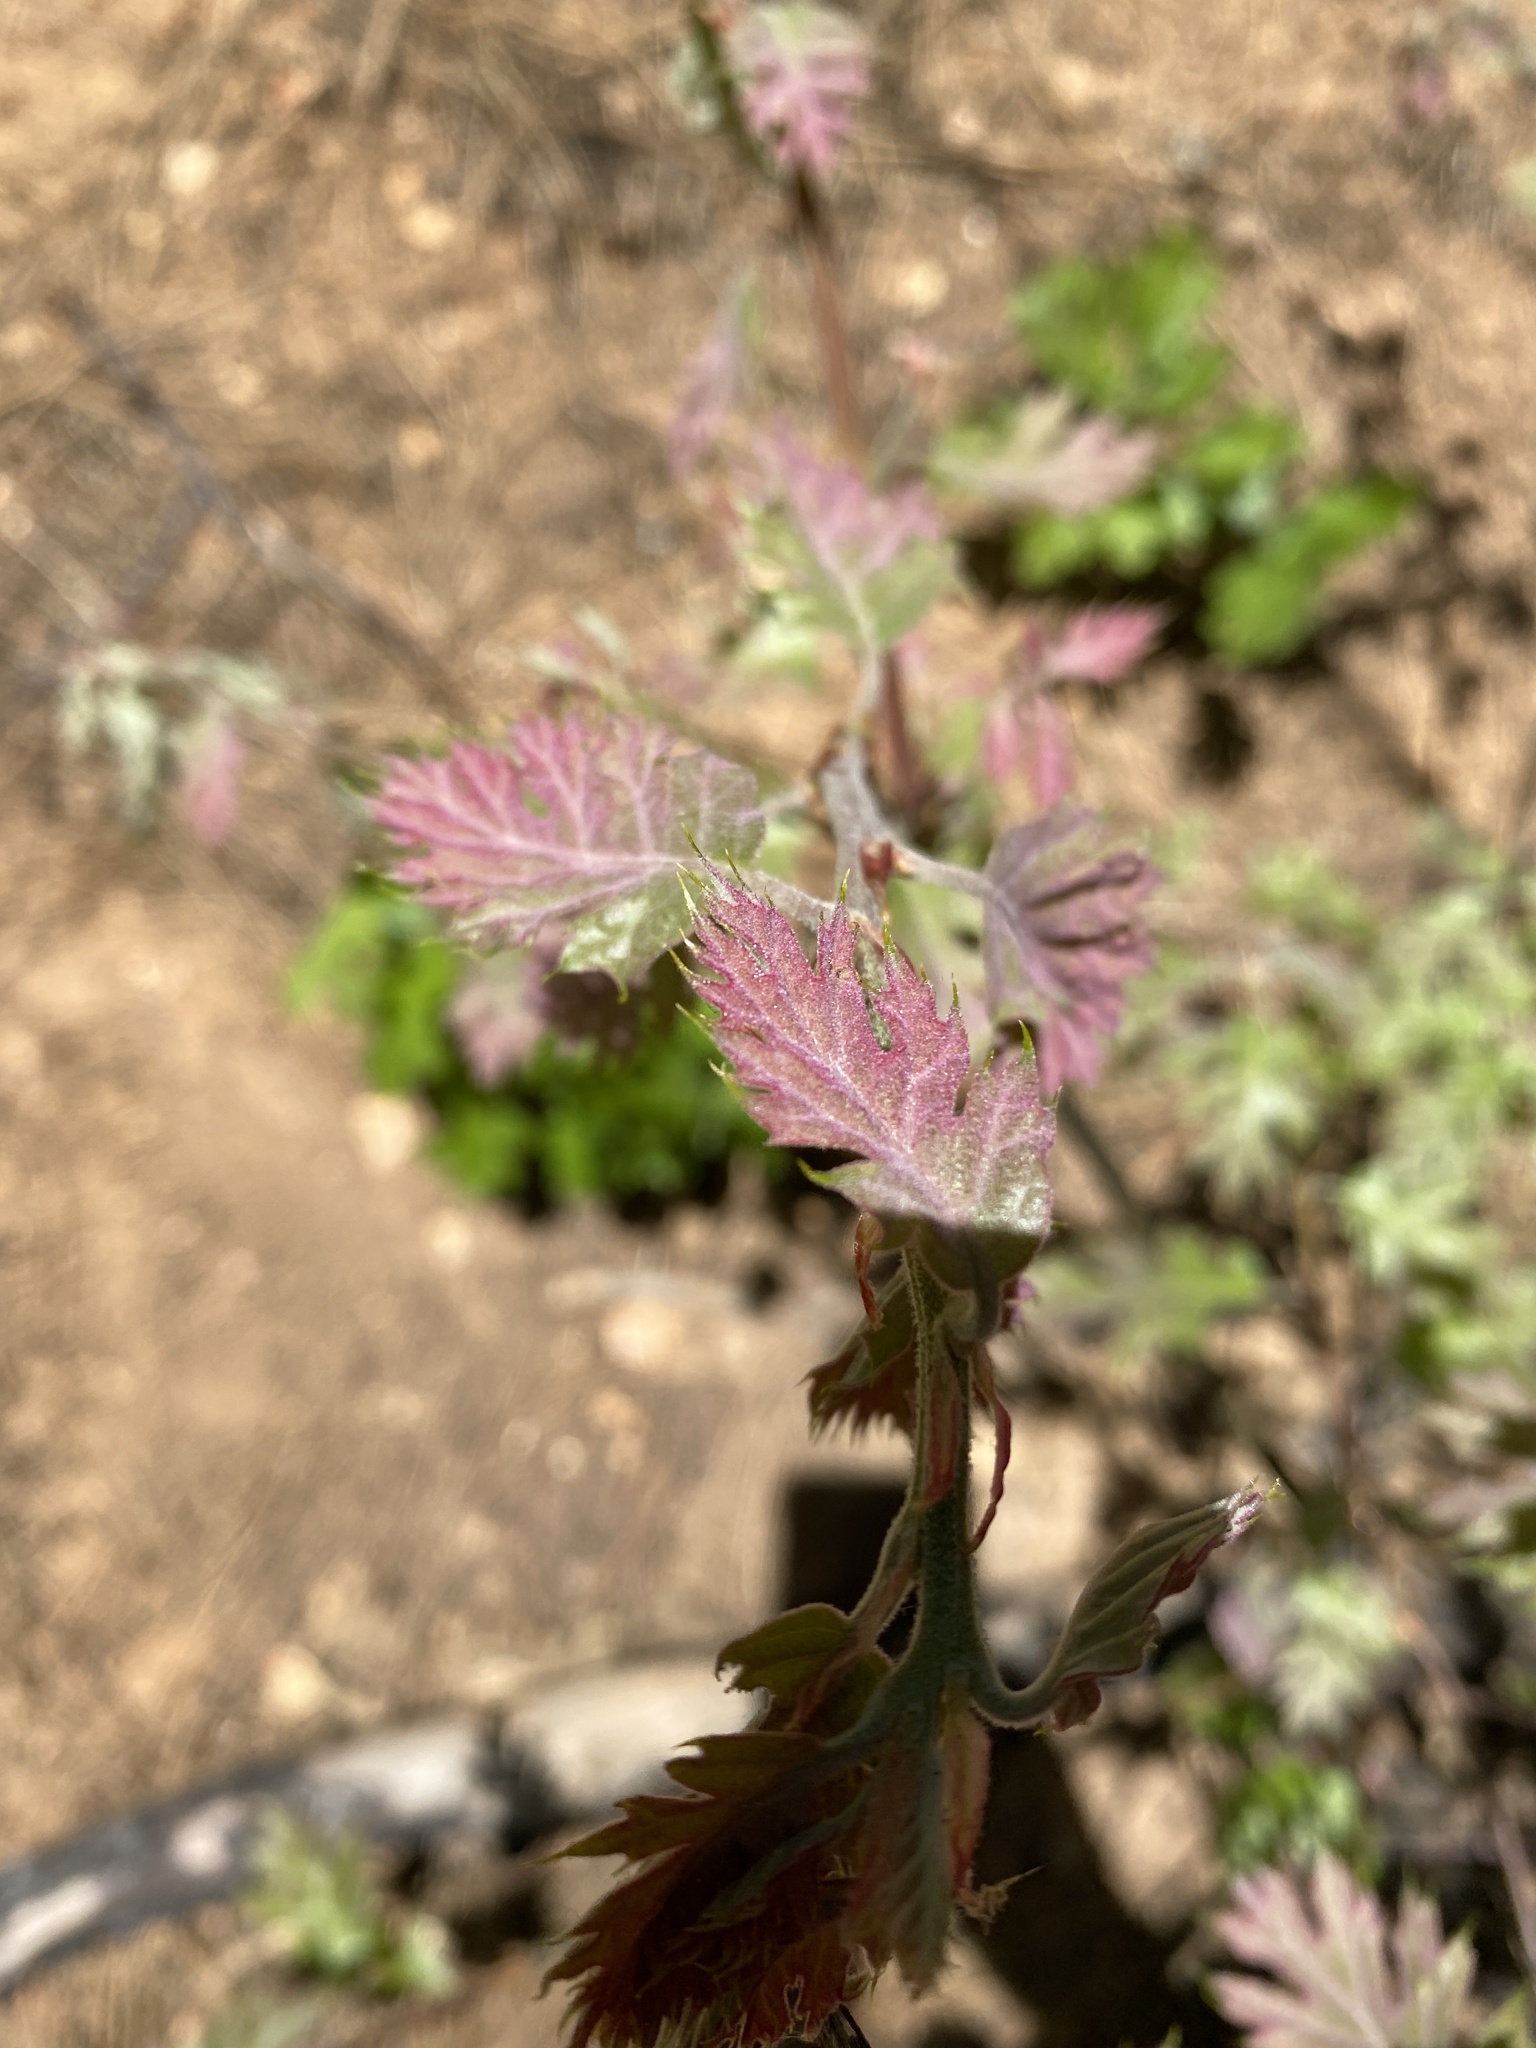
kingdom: Plantae
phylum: Tracheophyta
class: Magnoliopsida
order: Fagales
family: Fagaceae
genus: Quercus
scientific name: Quercus kelloggii
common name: California black oak
